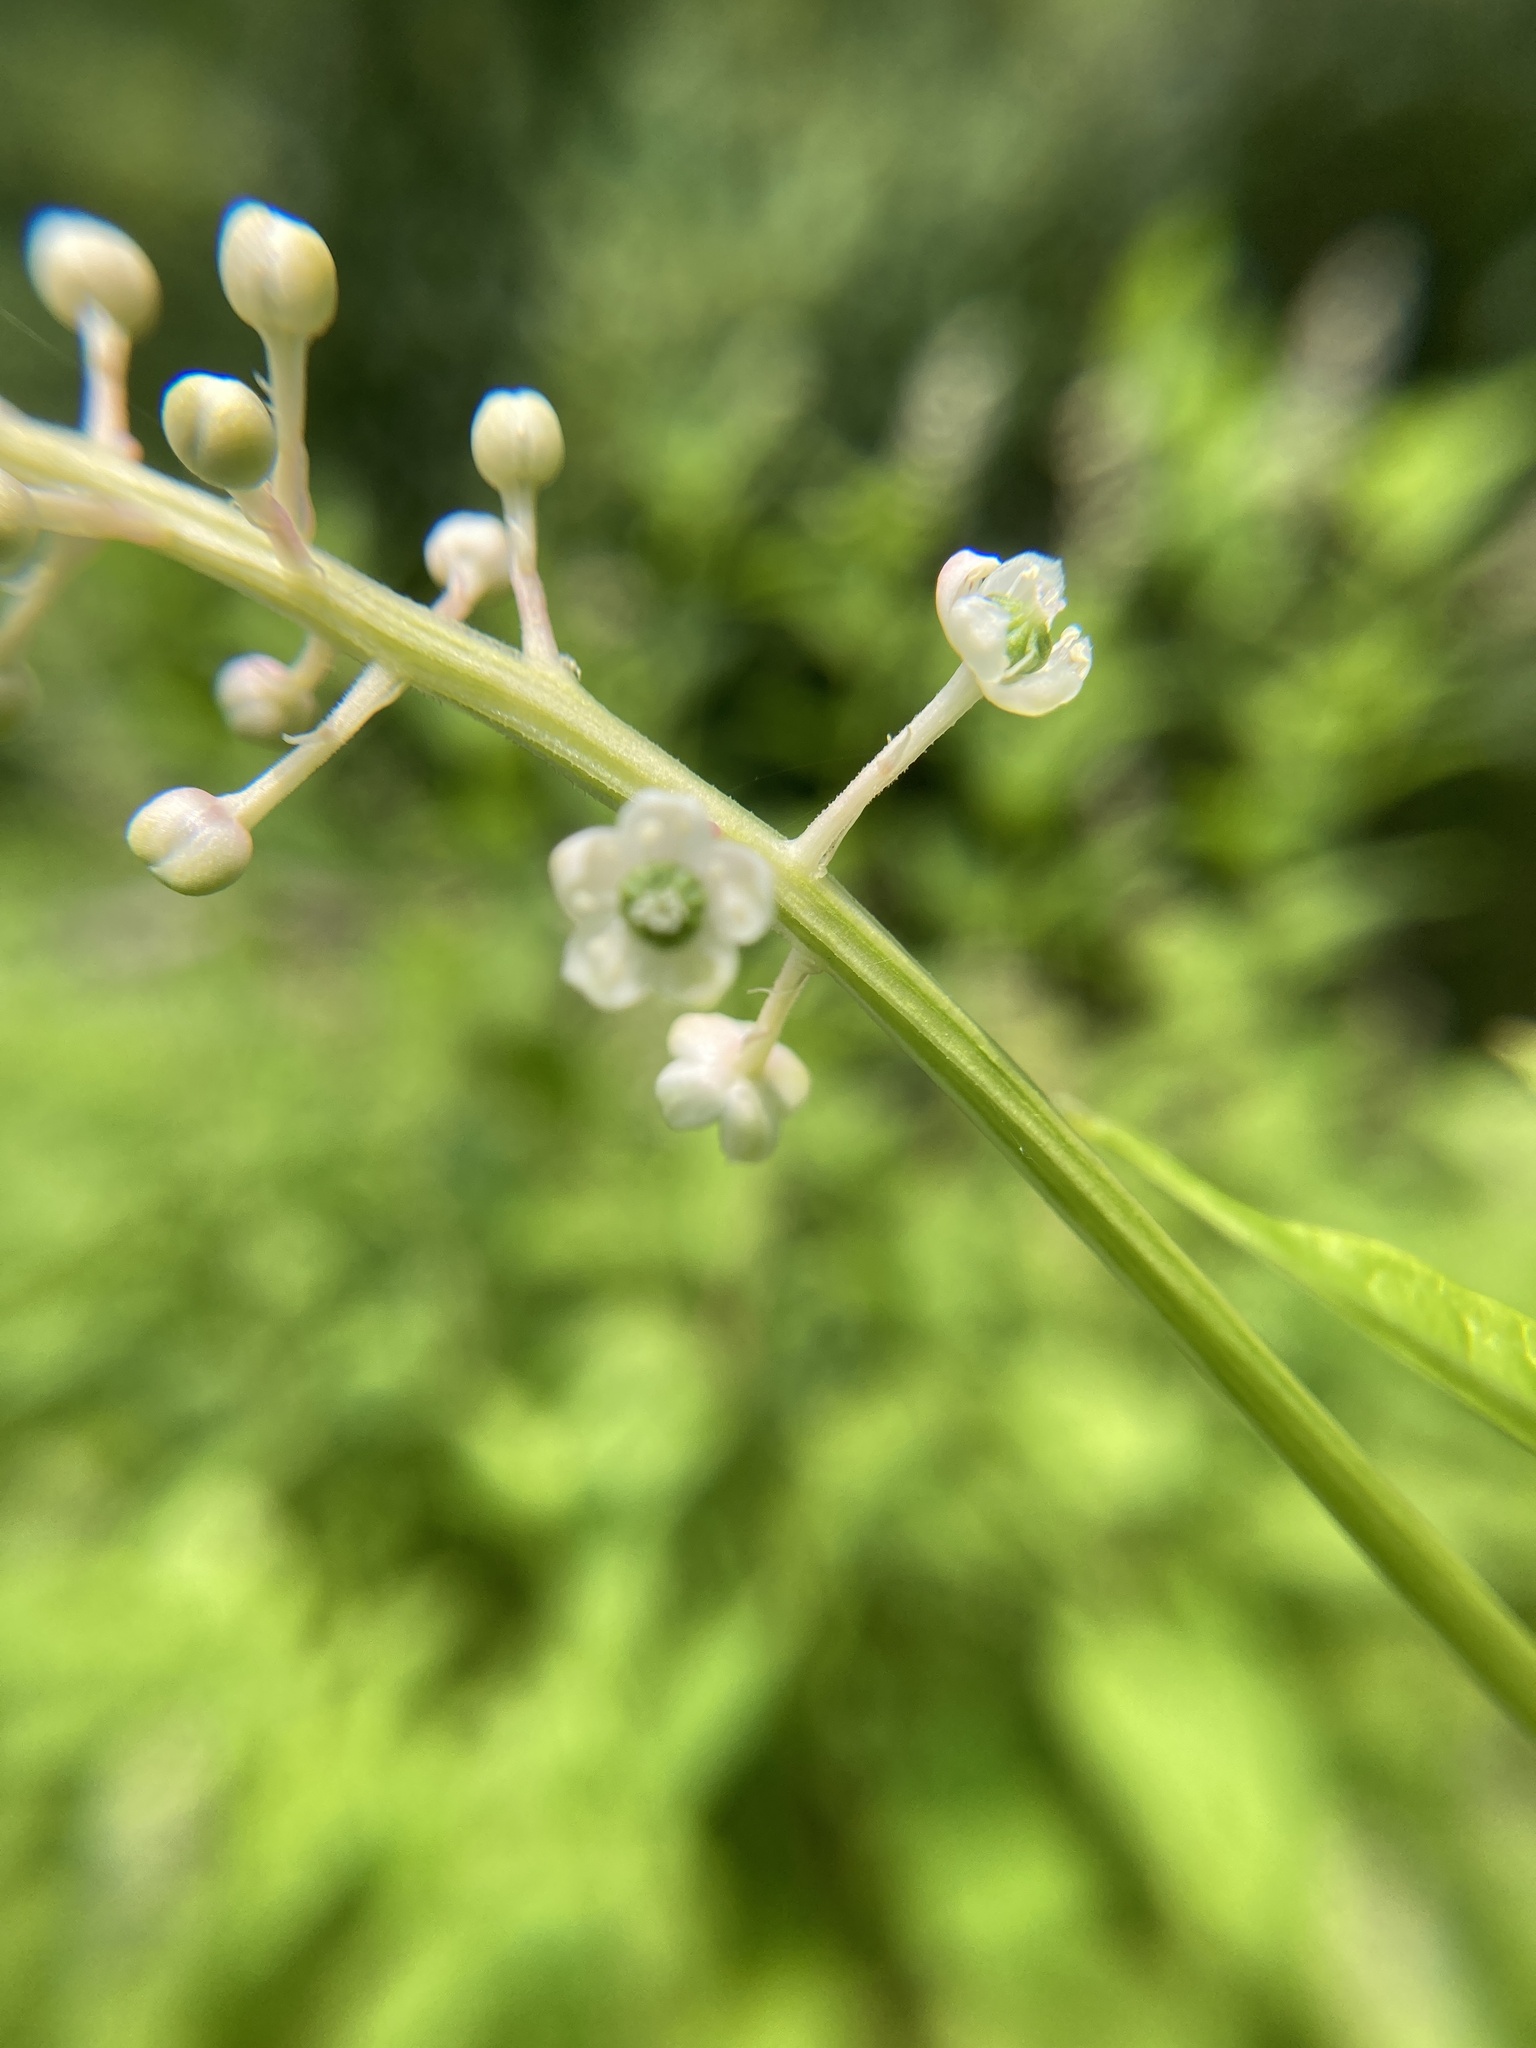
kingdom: Plantae
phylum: Tracheophyta
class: Magnoliopsida
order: Caryophyllales
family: Phytolaccaceae
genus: Phytolacca
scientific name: Phytolacca americana
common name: American pokeweed
